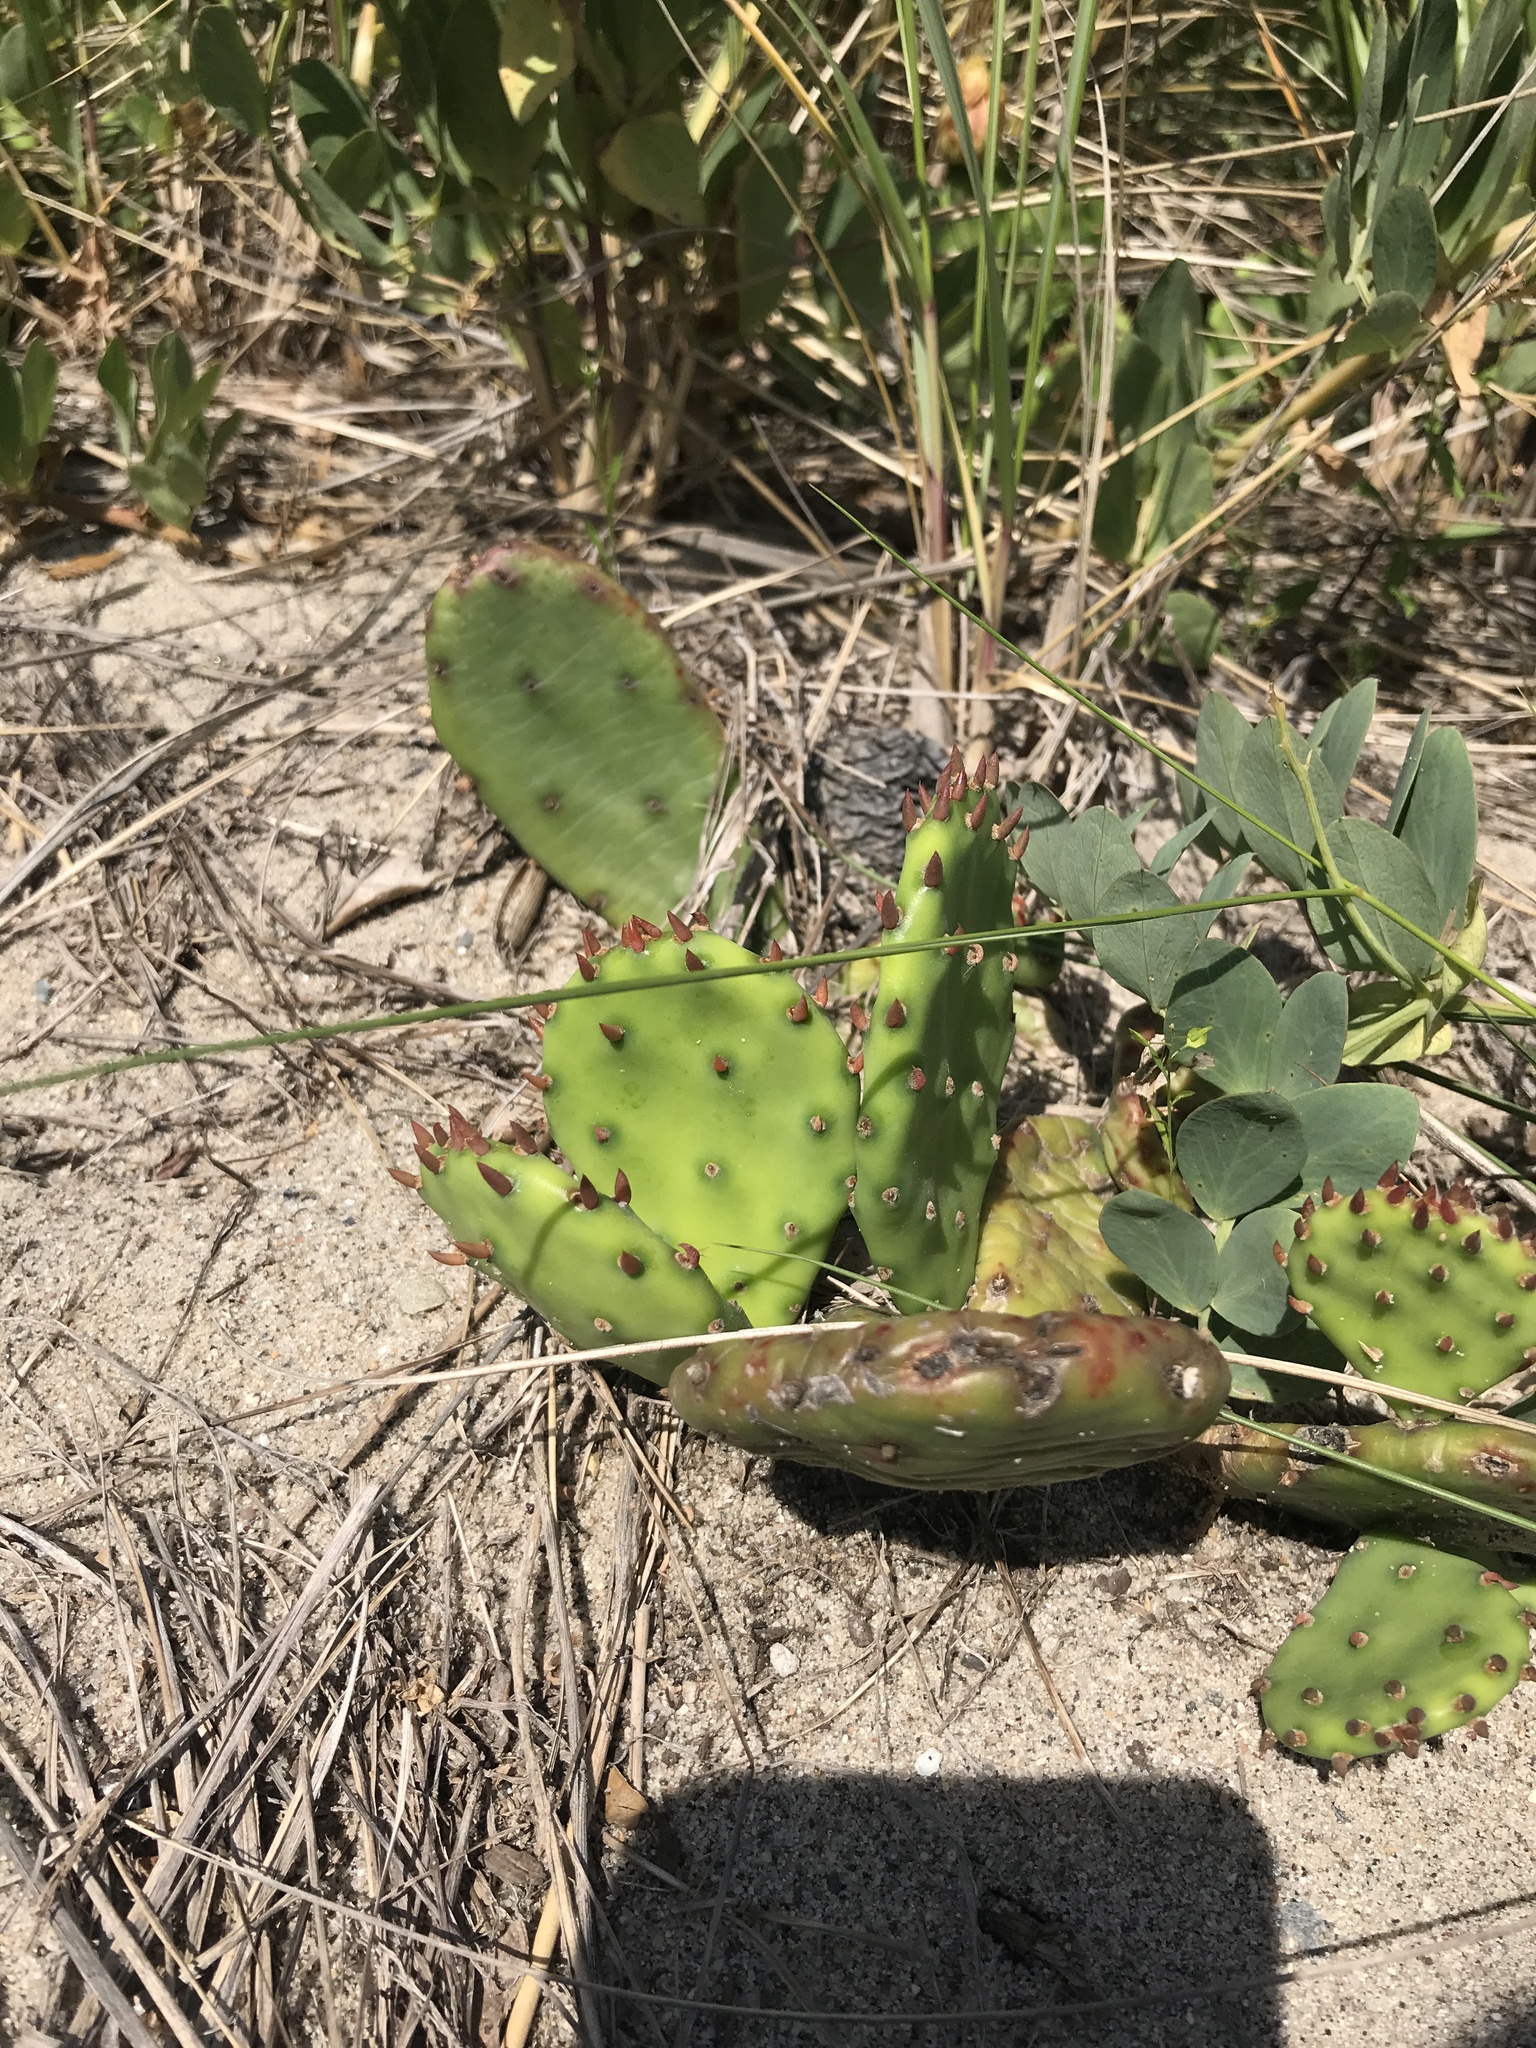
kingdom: Plantae
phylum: Tracheophyta
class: Magnoliopsida
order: Caryophyllales
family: Cactaceae
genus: Opuntia
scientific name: Opuntia humifusa
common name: Eastern prickly-pear
